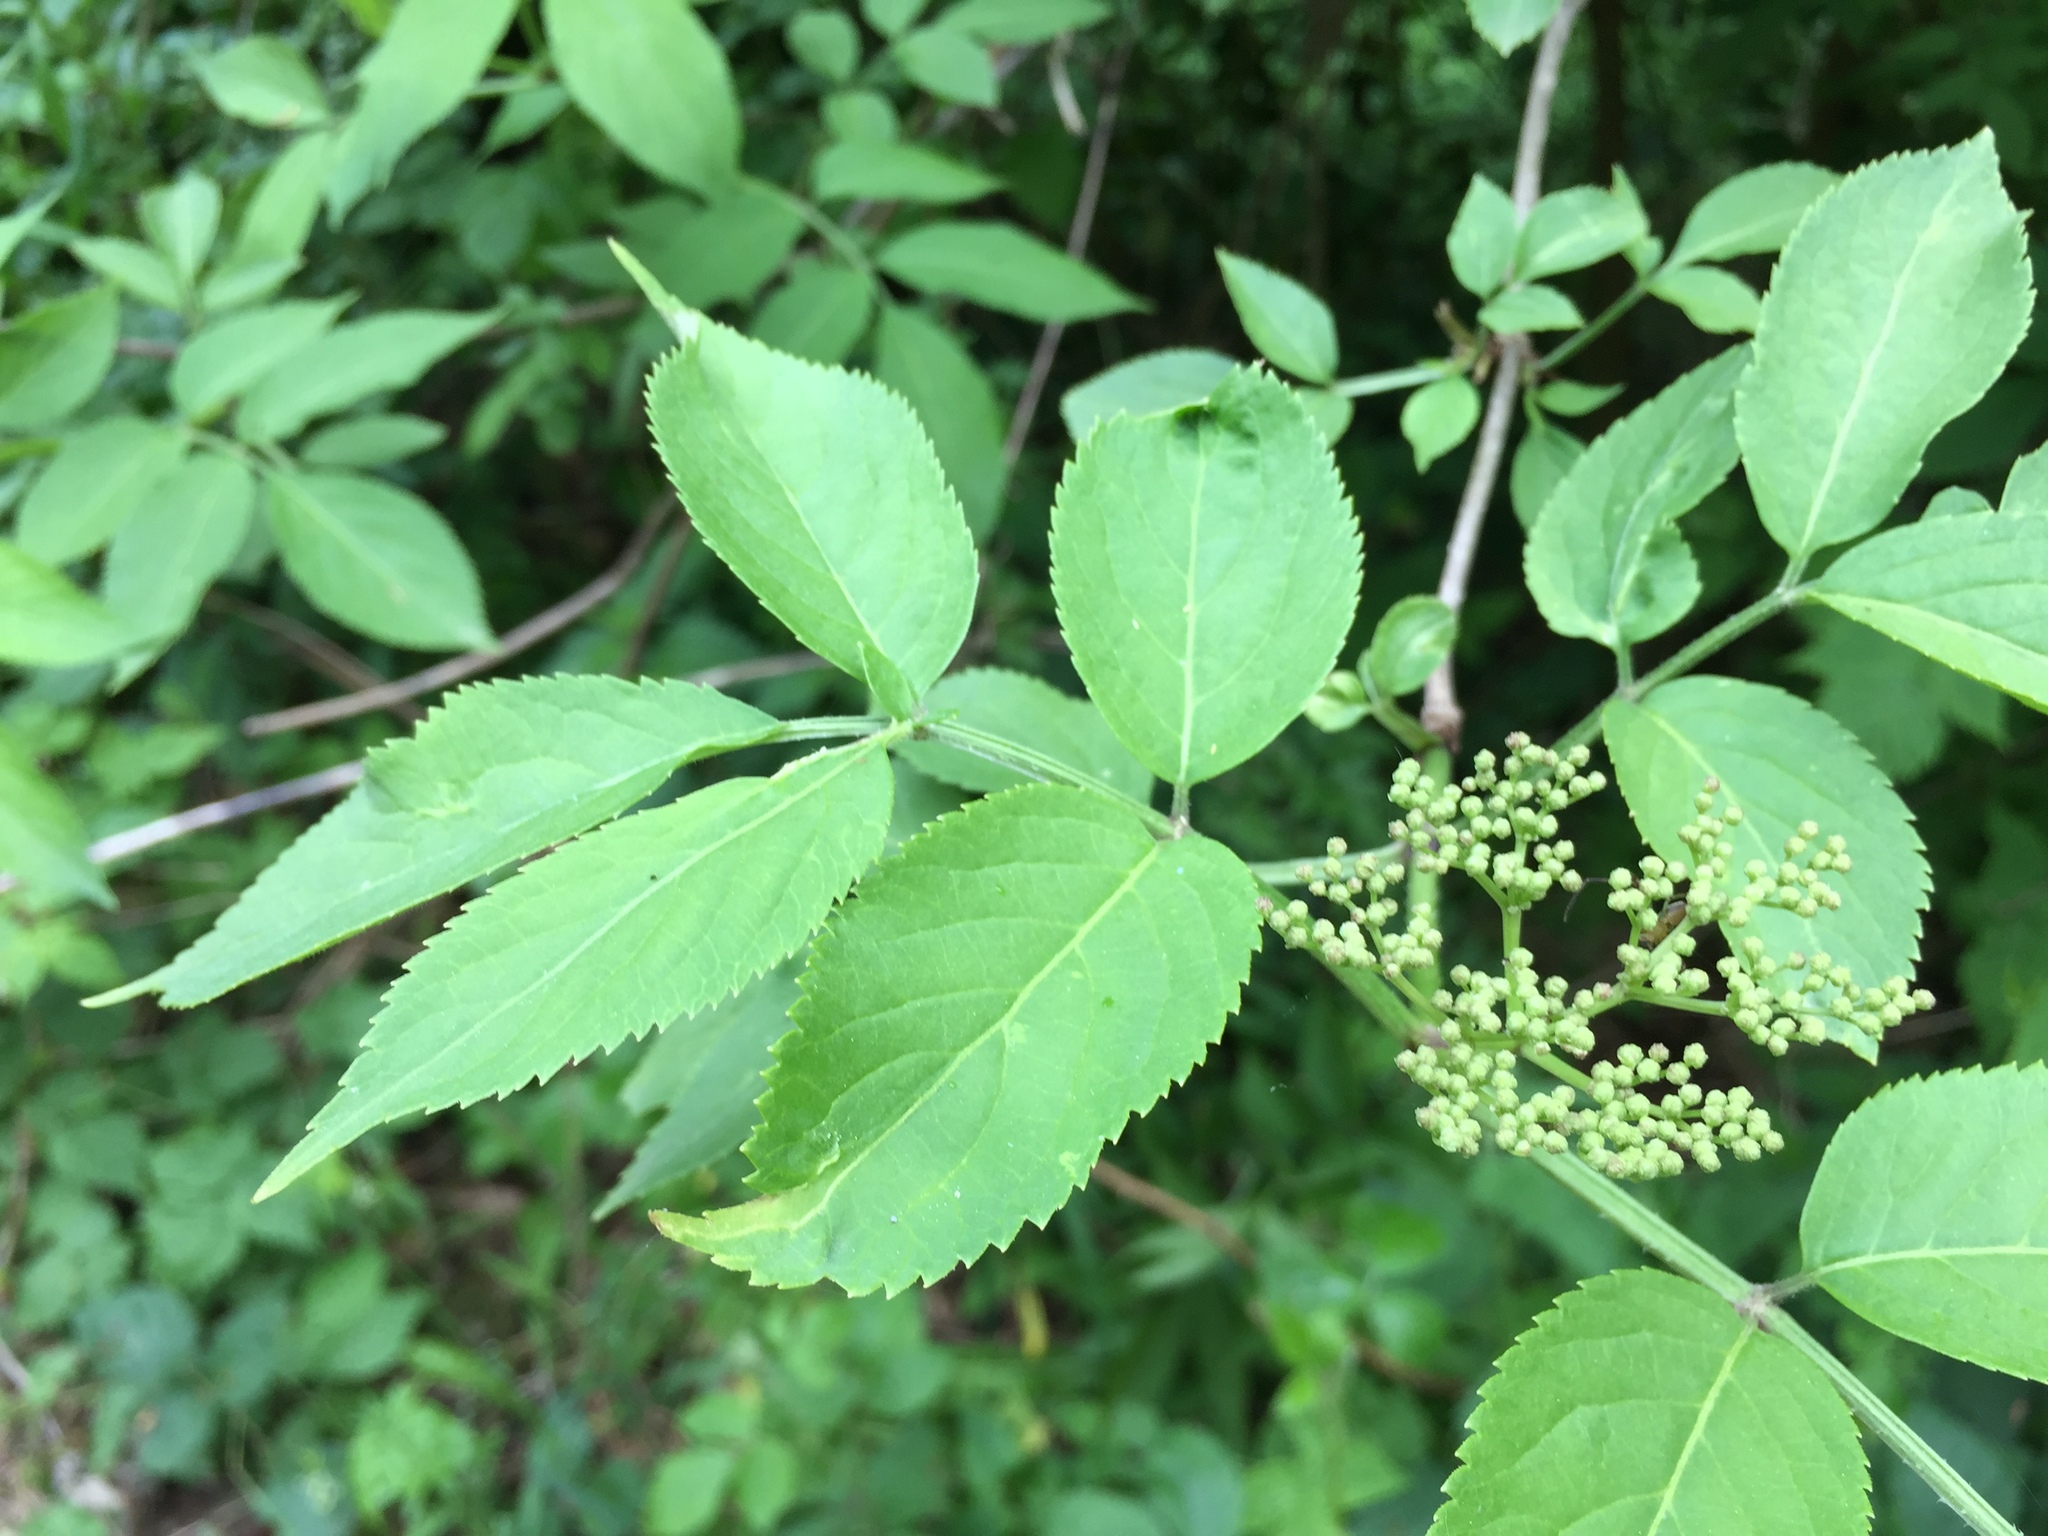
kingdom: Plantae
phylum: Tracheophyta
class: Magnoliopsida
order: Dipsacales
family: Viburnaceae
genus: Sambucus
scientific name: Sambucus nigra
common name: Elder
